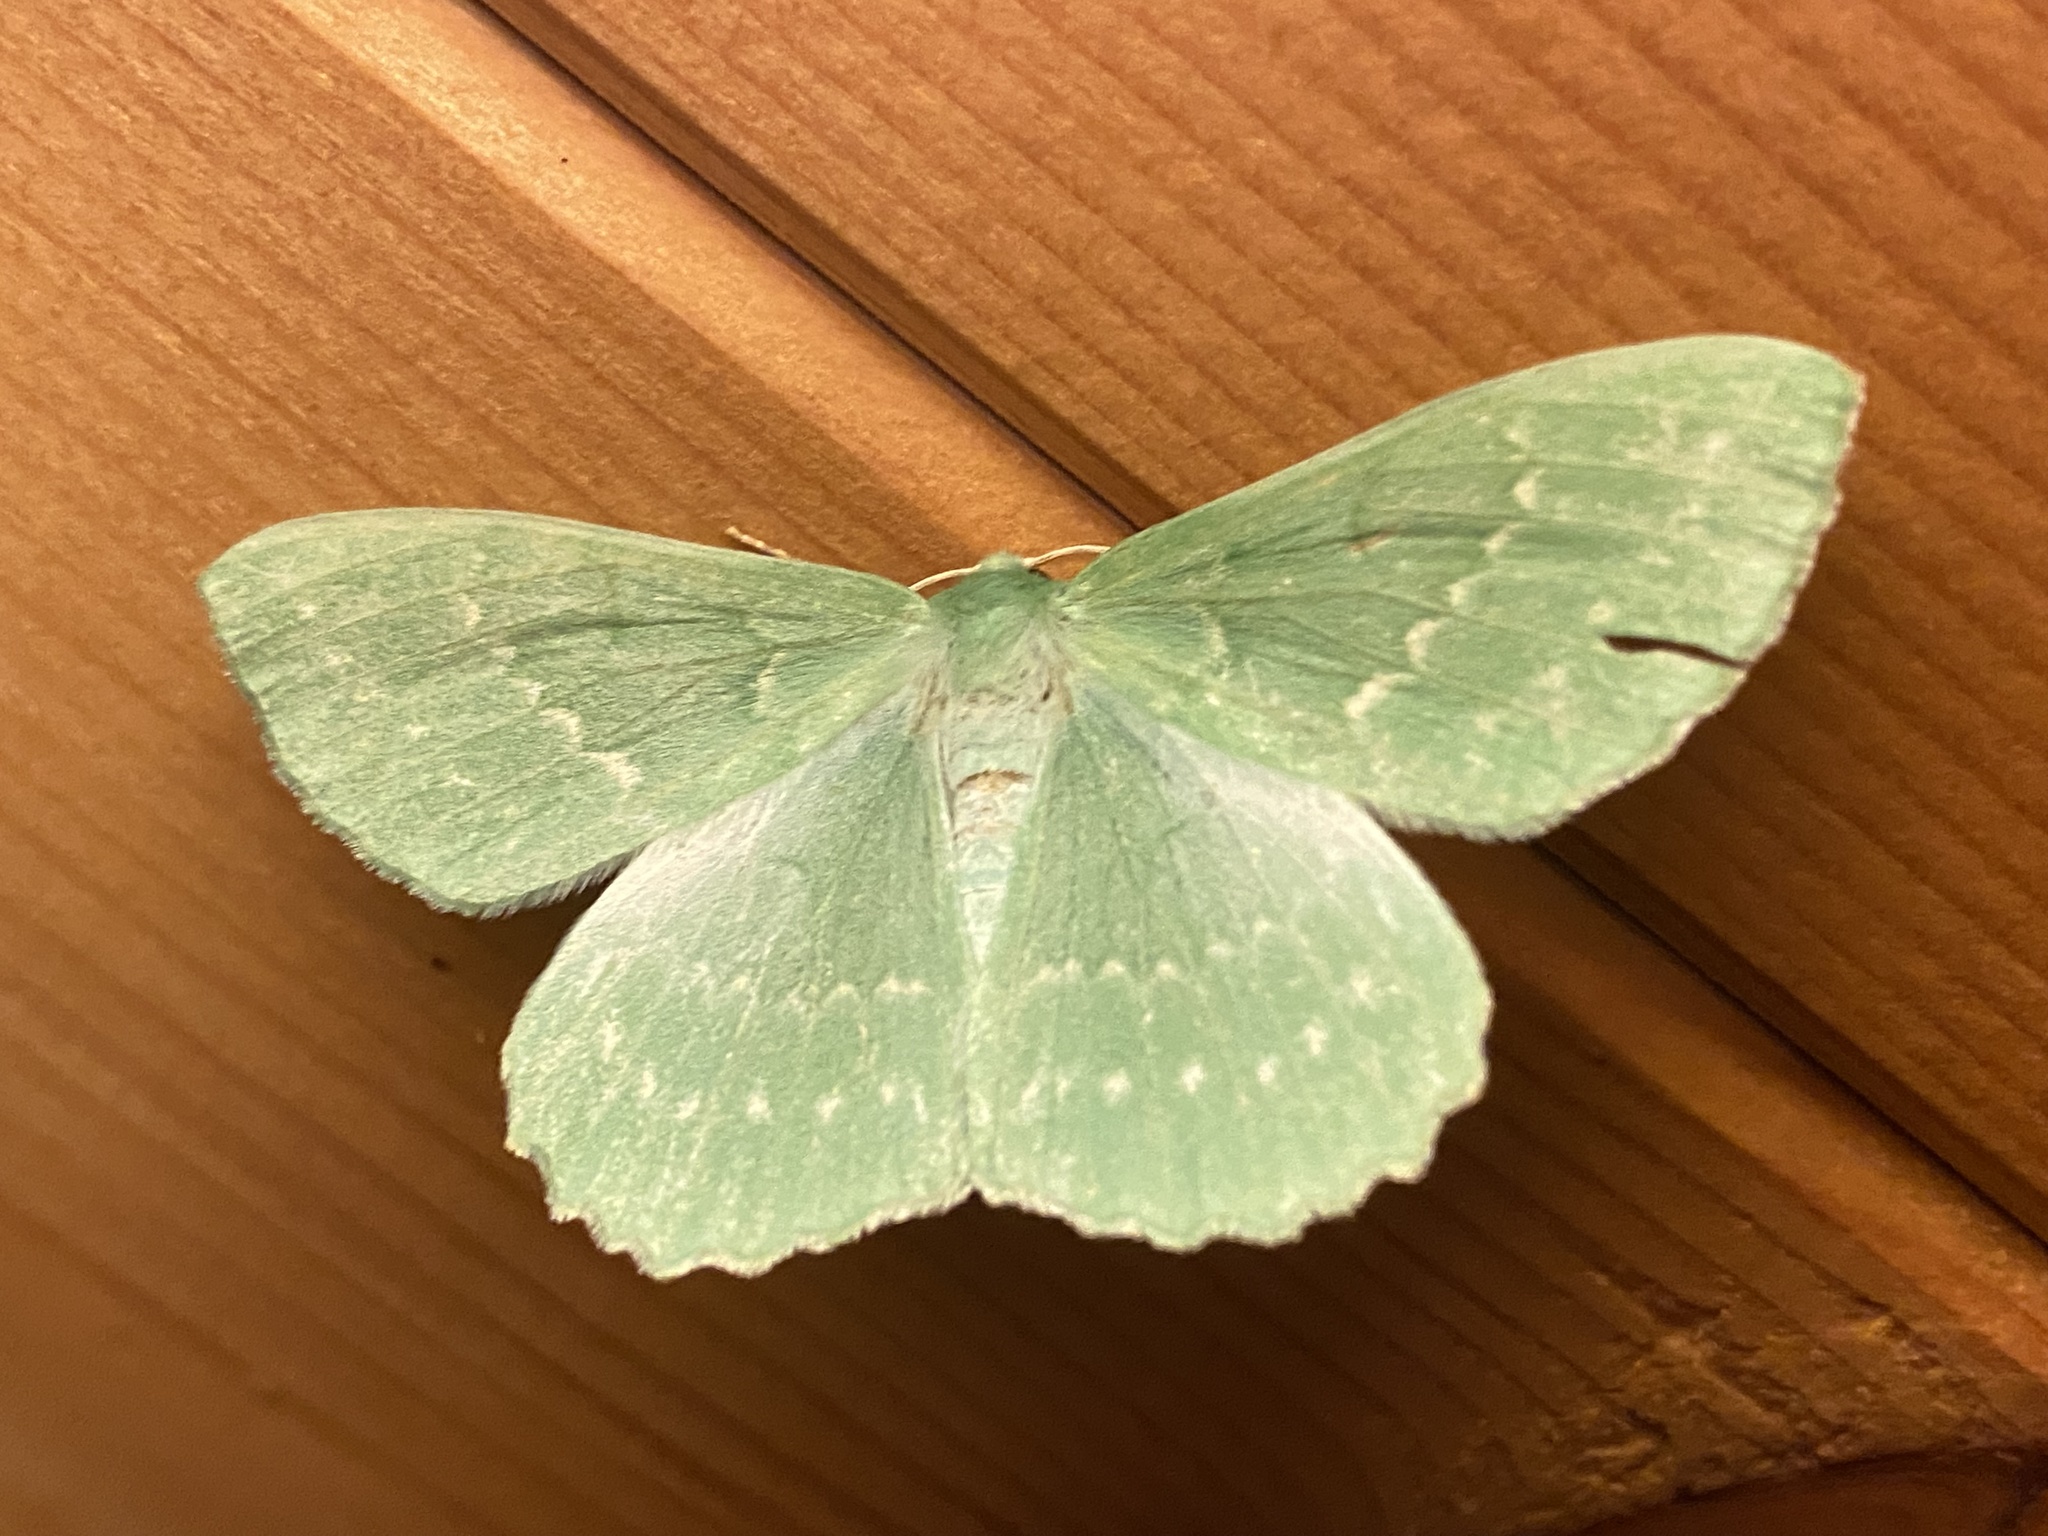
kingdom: Animalia
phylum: Arthropoda
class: Insecta
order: Lepidoptera
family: Geometridae
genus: Geometra
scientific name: Geometra papilionaria
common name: Large emerald
